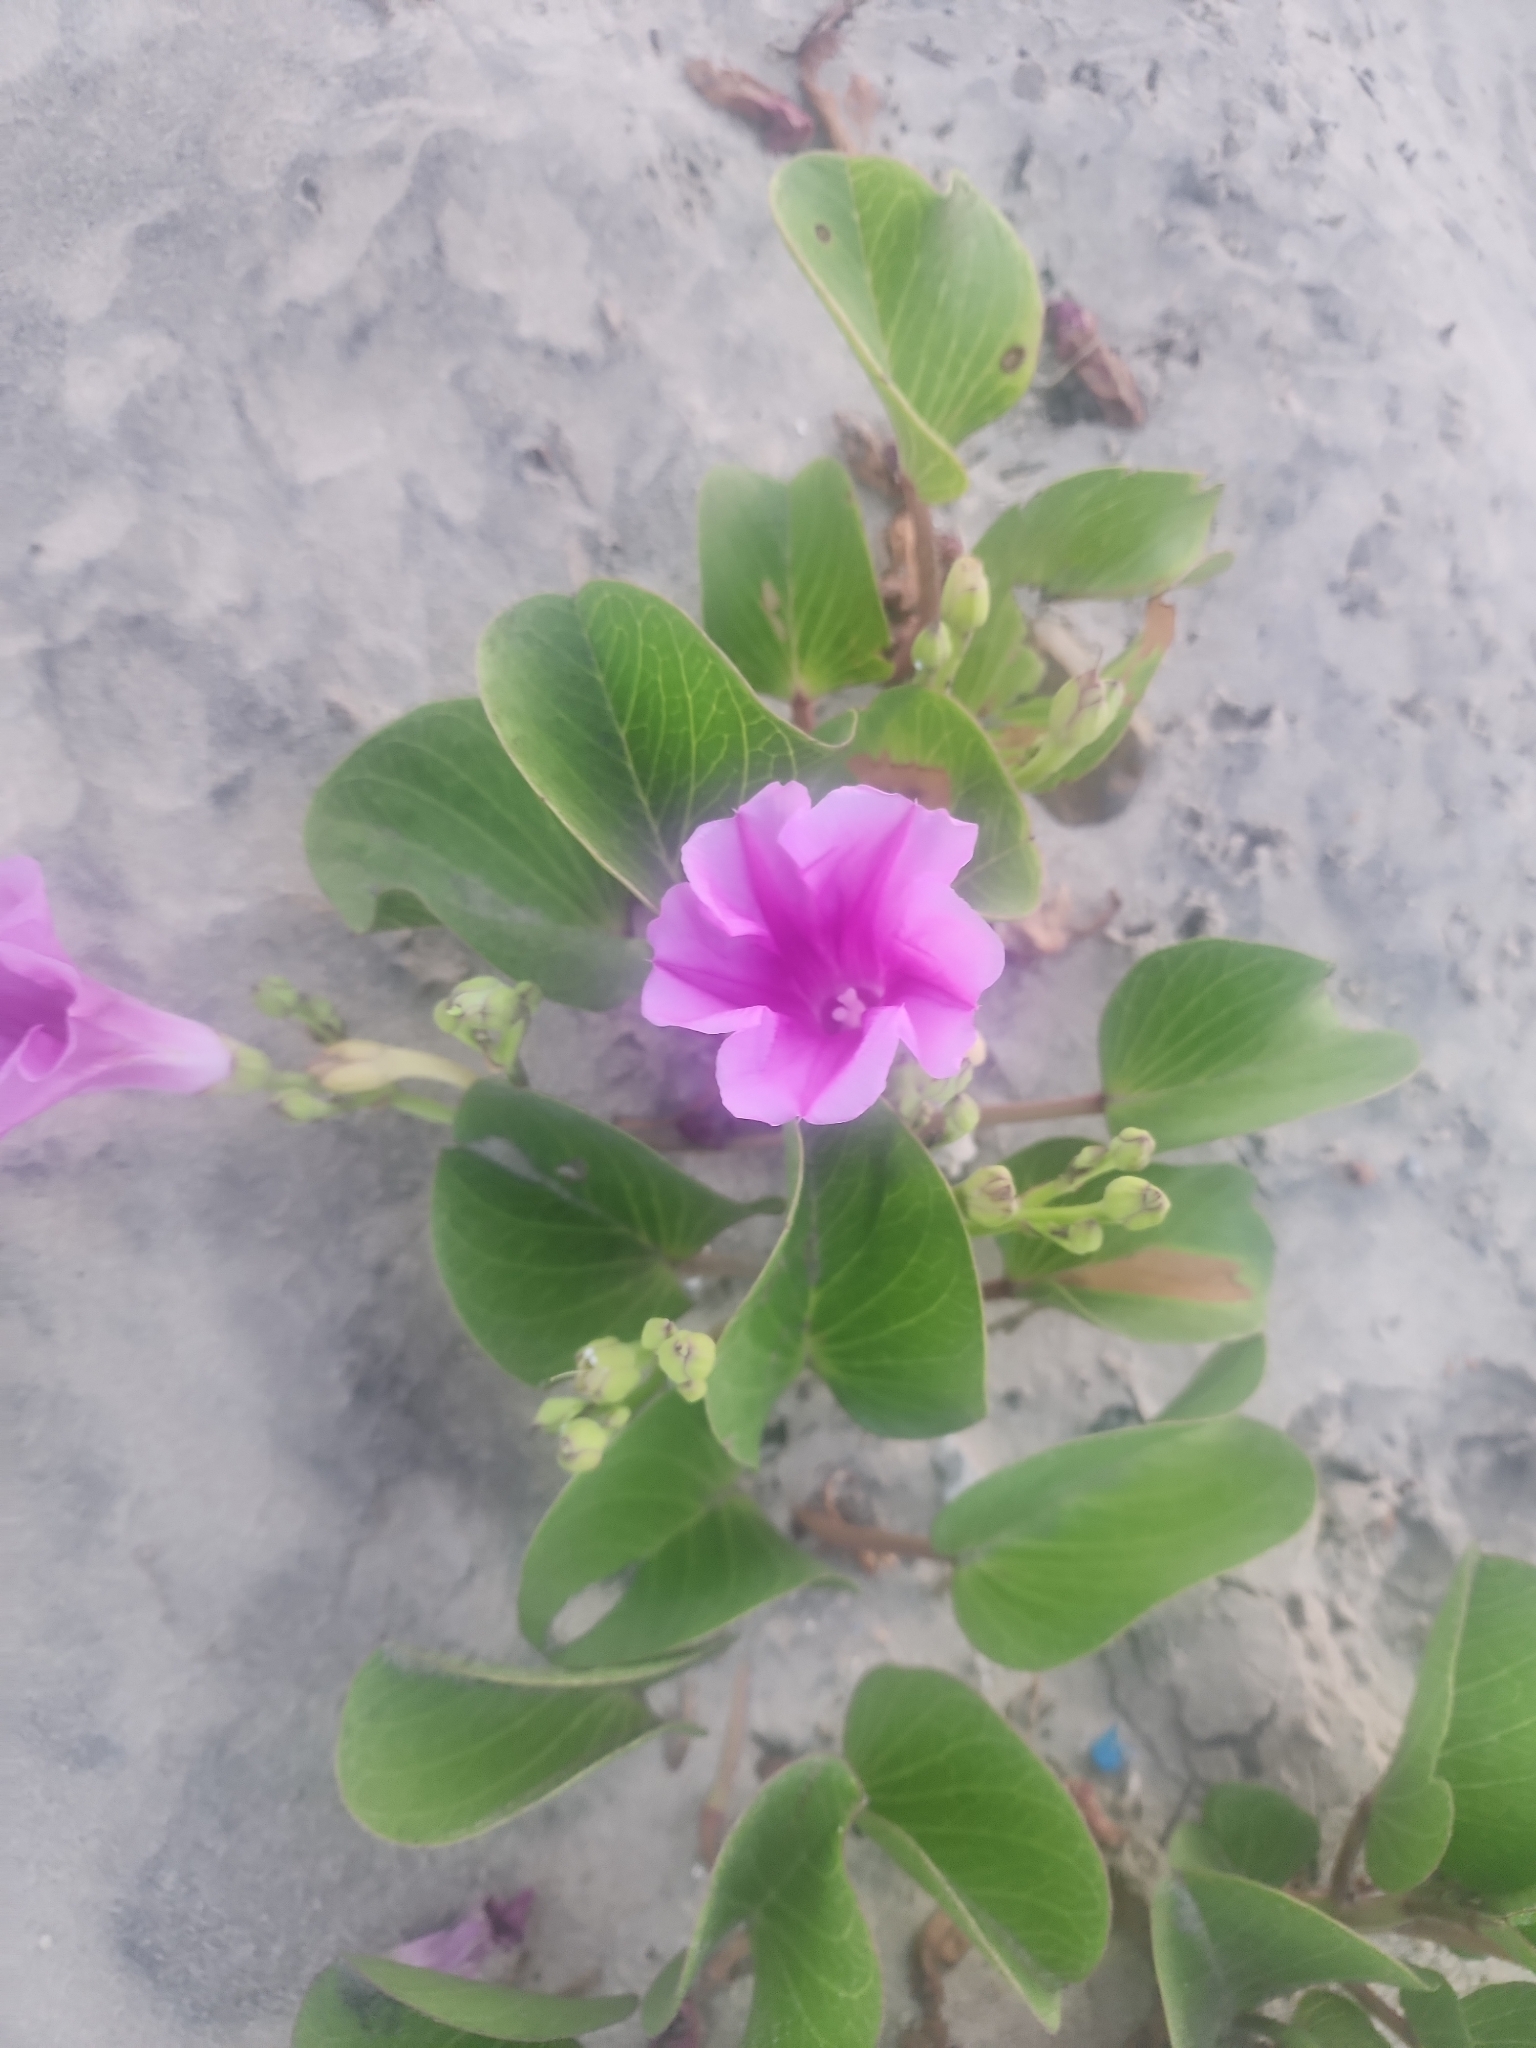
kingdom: Plantae
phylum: Tracheophyta
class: Magnoliopsida
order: Solanales
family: Convolvulaceae
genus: Ipomoea
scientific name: Ipomoea pes-caprae
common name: Beach morning glory
